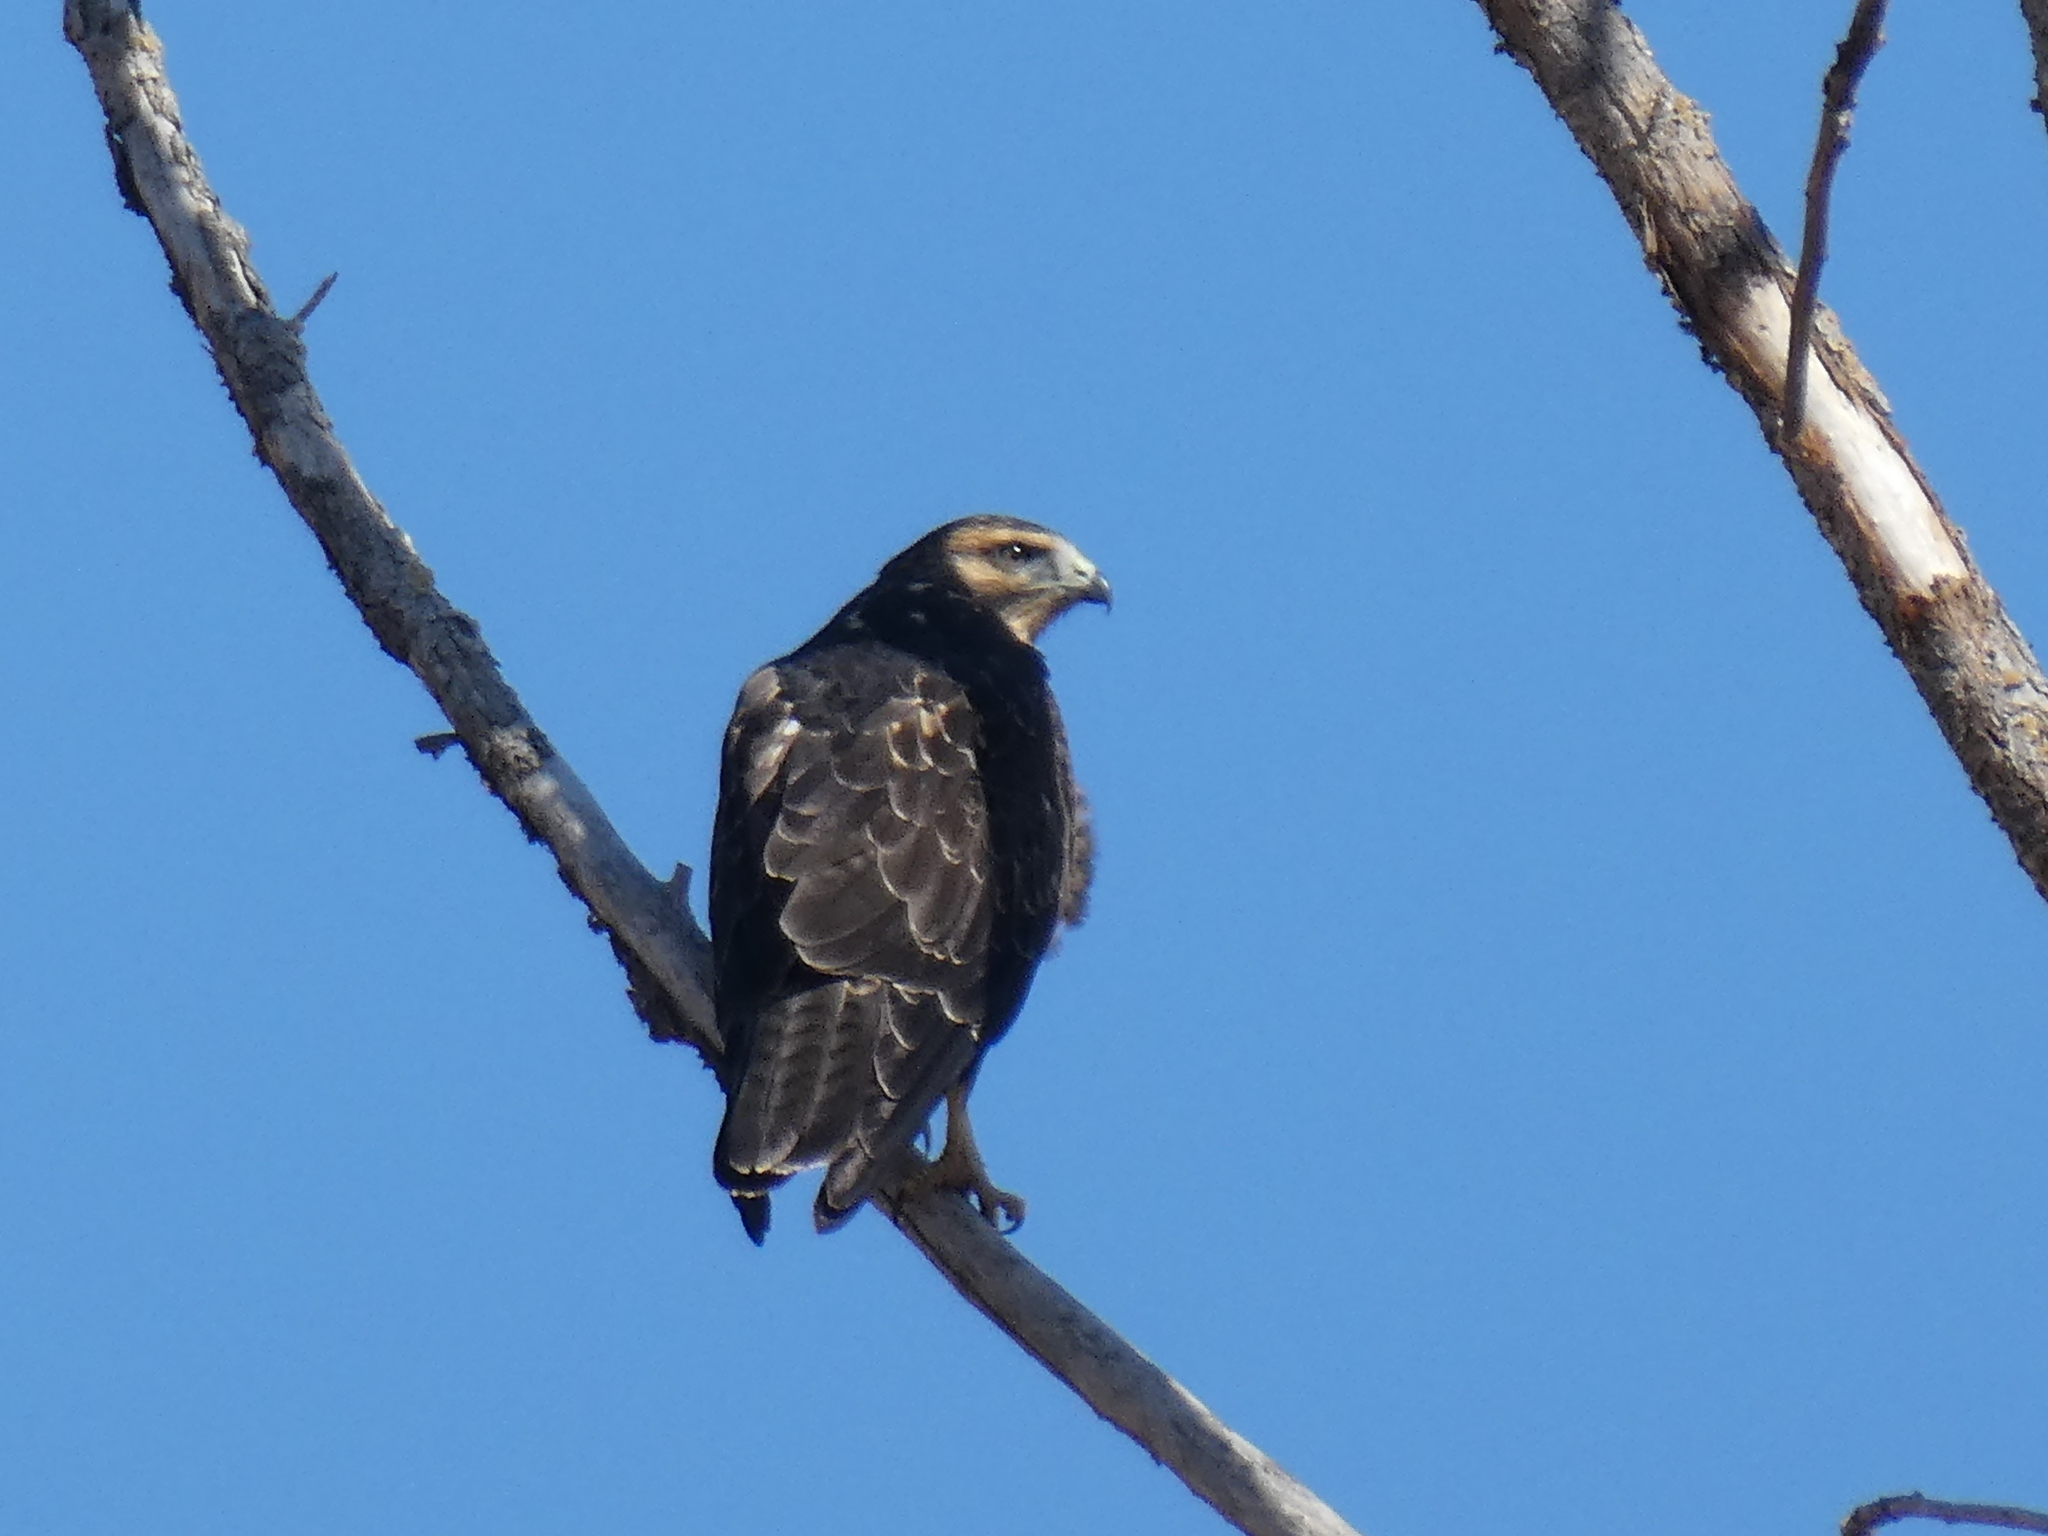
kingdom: Animalia
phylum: Chordata
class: Aves
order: Accipitriformes
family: Accipitridae
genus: Buteo
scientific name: Buteo swainsoni
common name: Swainson's hawk
